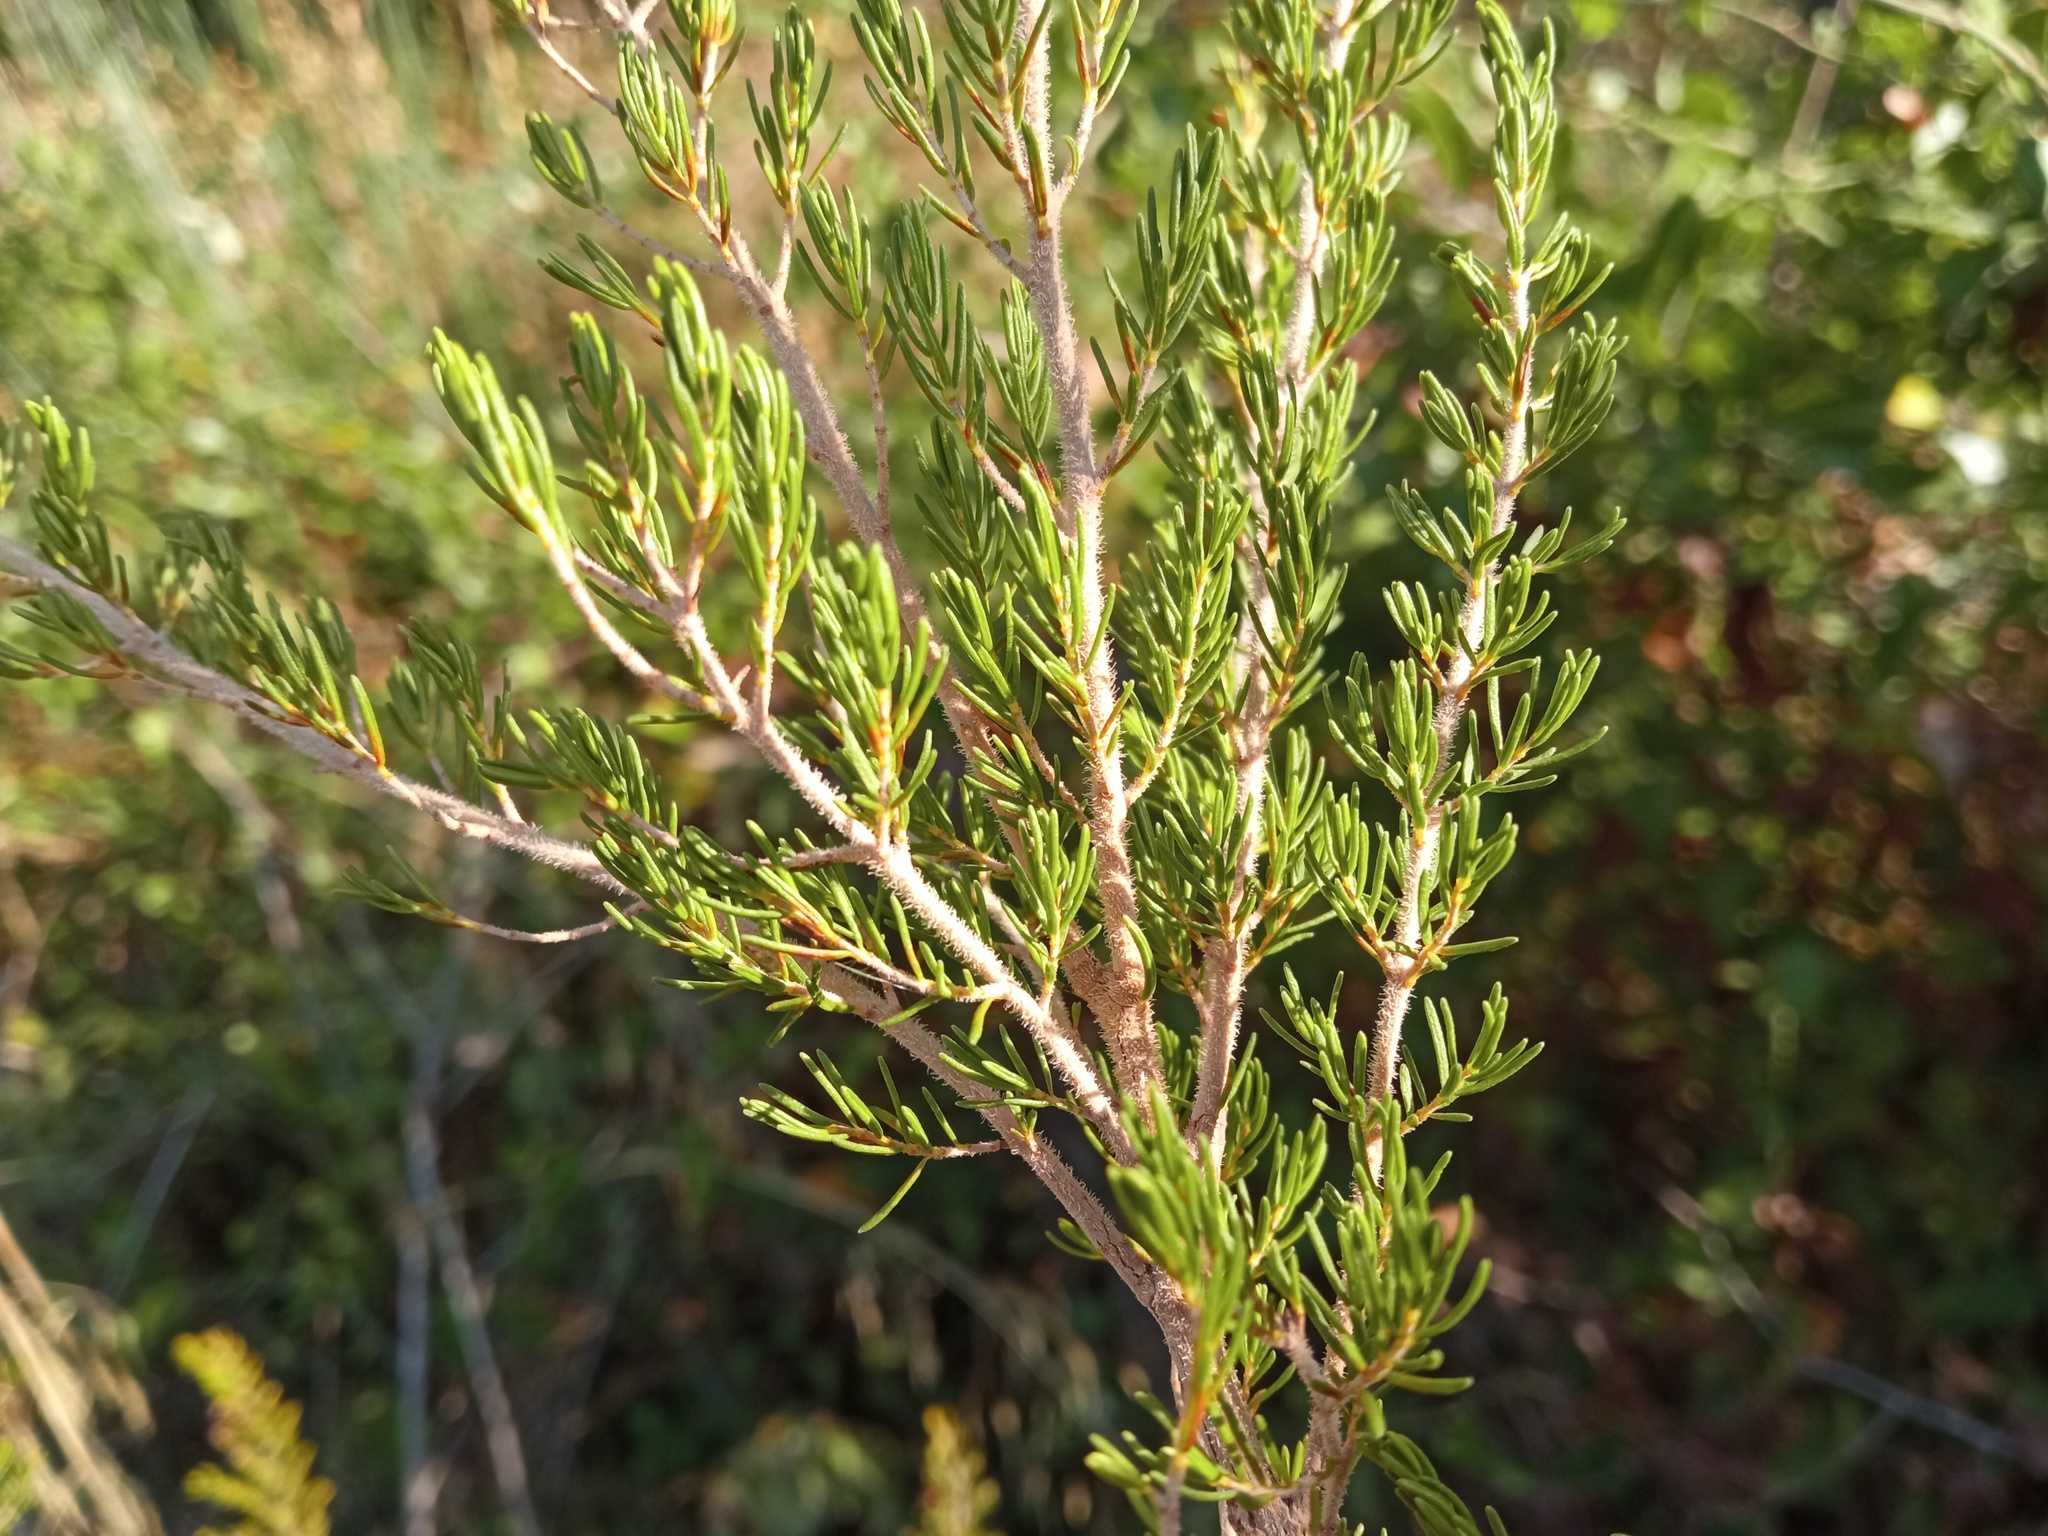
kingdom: Plantae
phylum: Tracheophyta
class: Magnoliopsida
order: Ericales
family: Ericaceae
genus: Erica
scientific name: Erica arborea
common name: Tree heath
